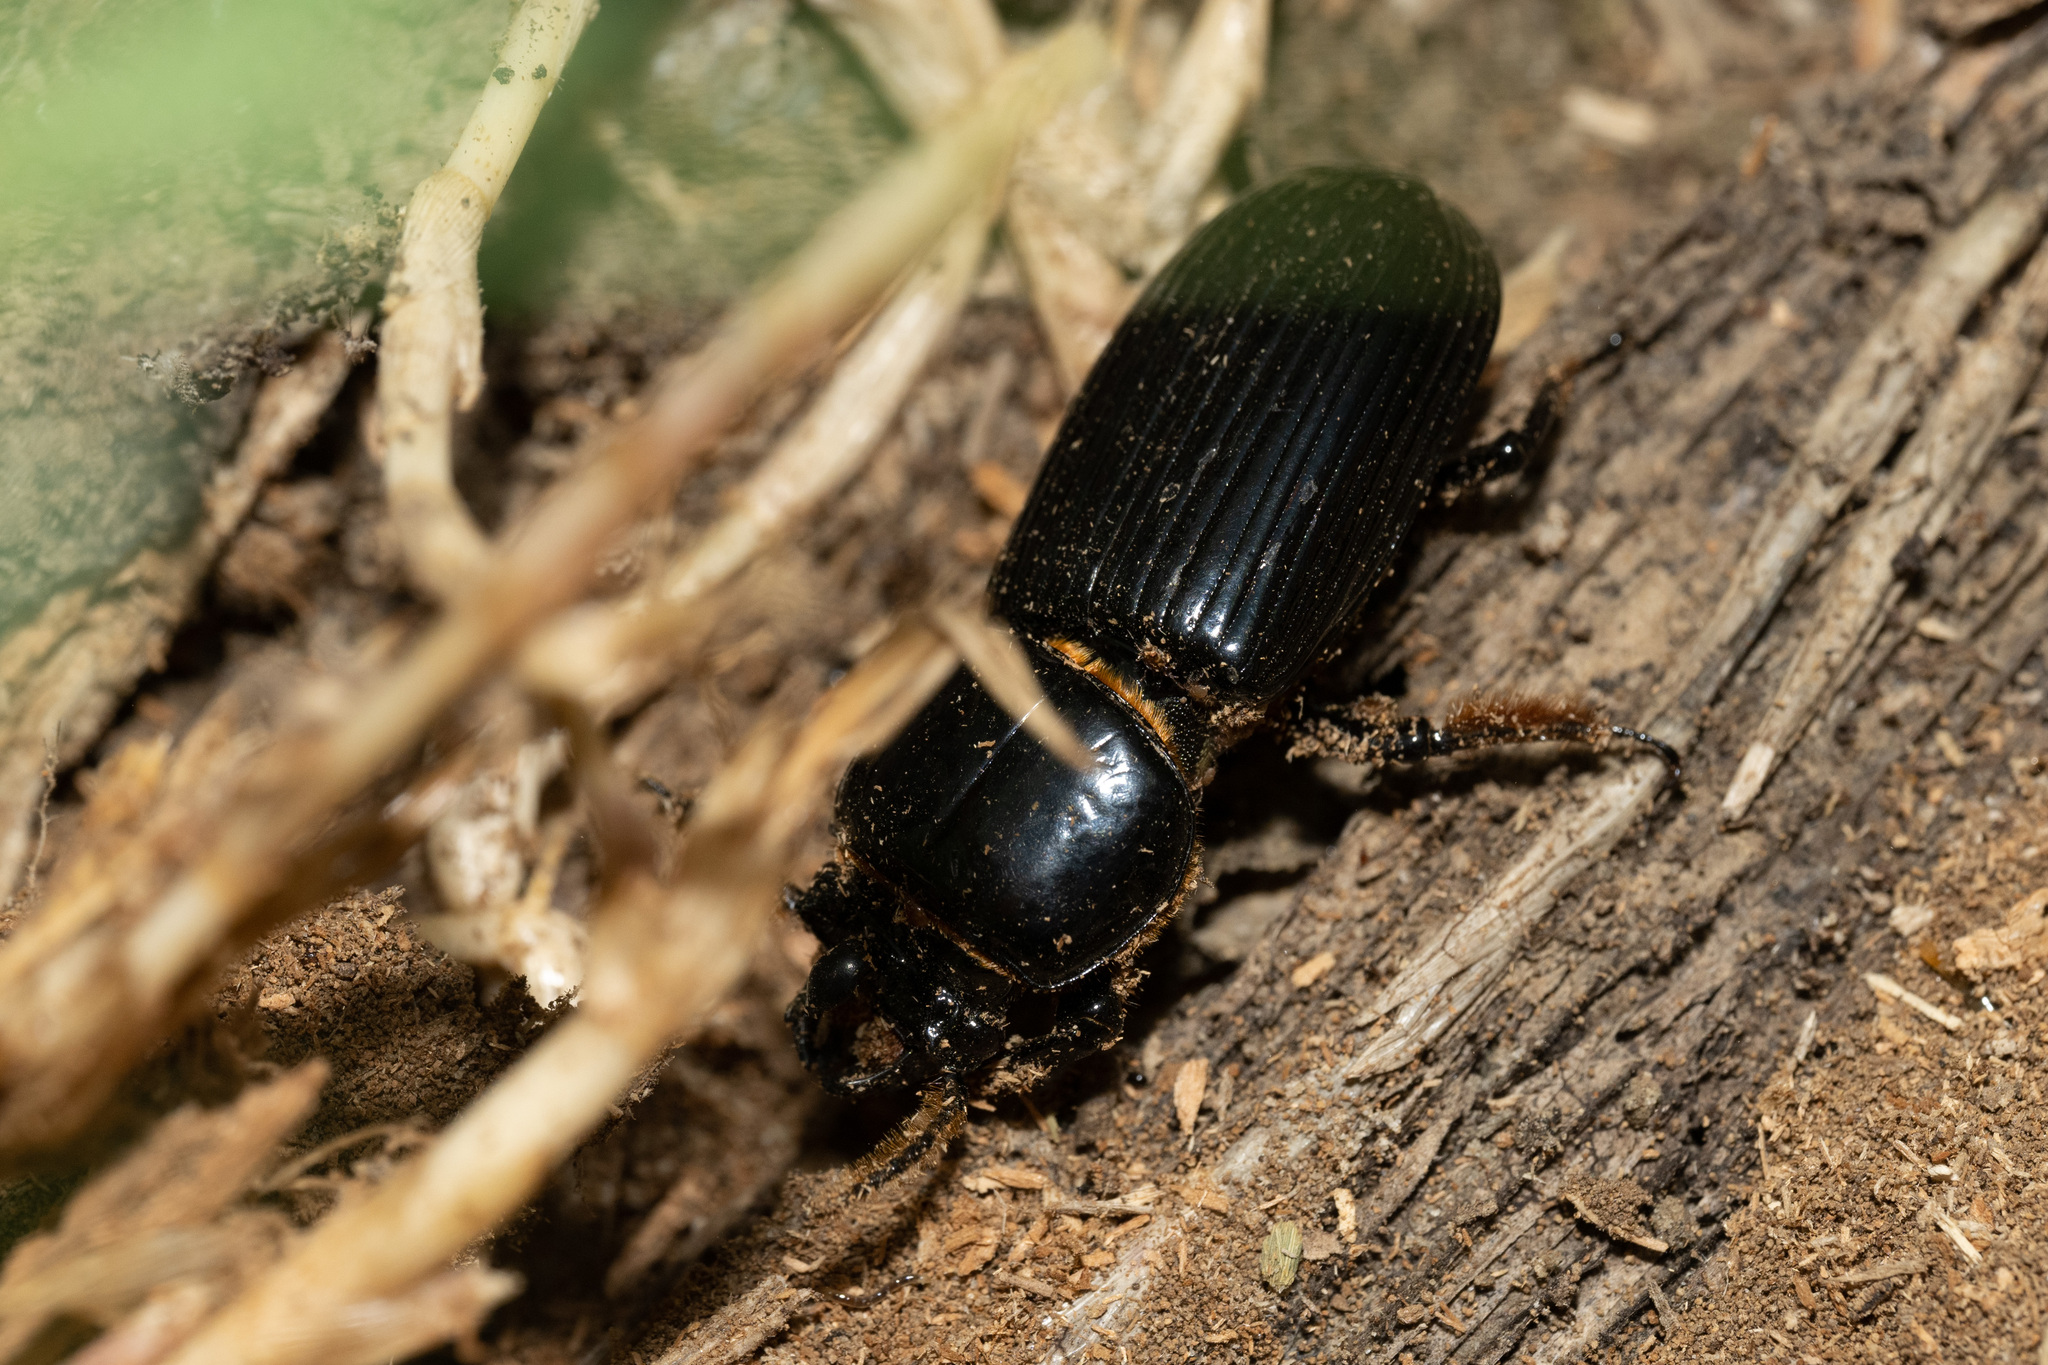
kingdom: Animalia
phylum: Arthropoda
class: Insecta
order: Coleoptera
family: Passalidae
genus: Odontotaenius
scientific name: Odontotaenius disjunctus
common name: Patent leather beetle
